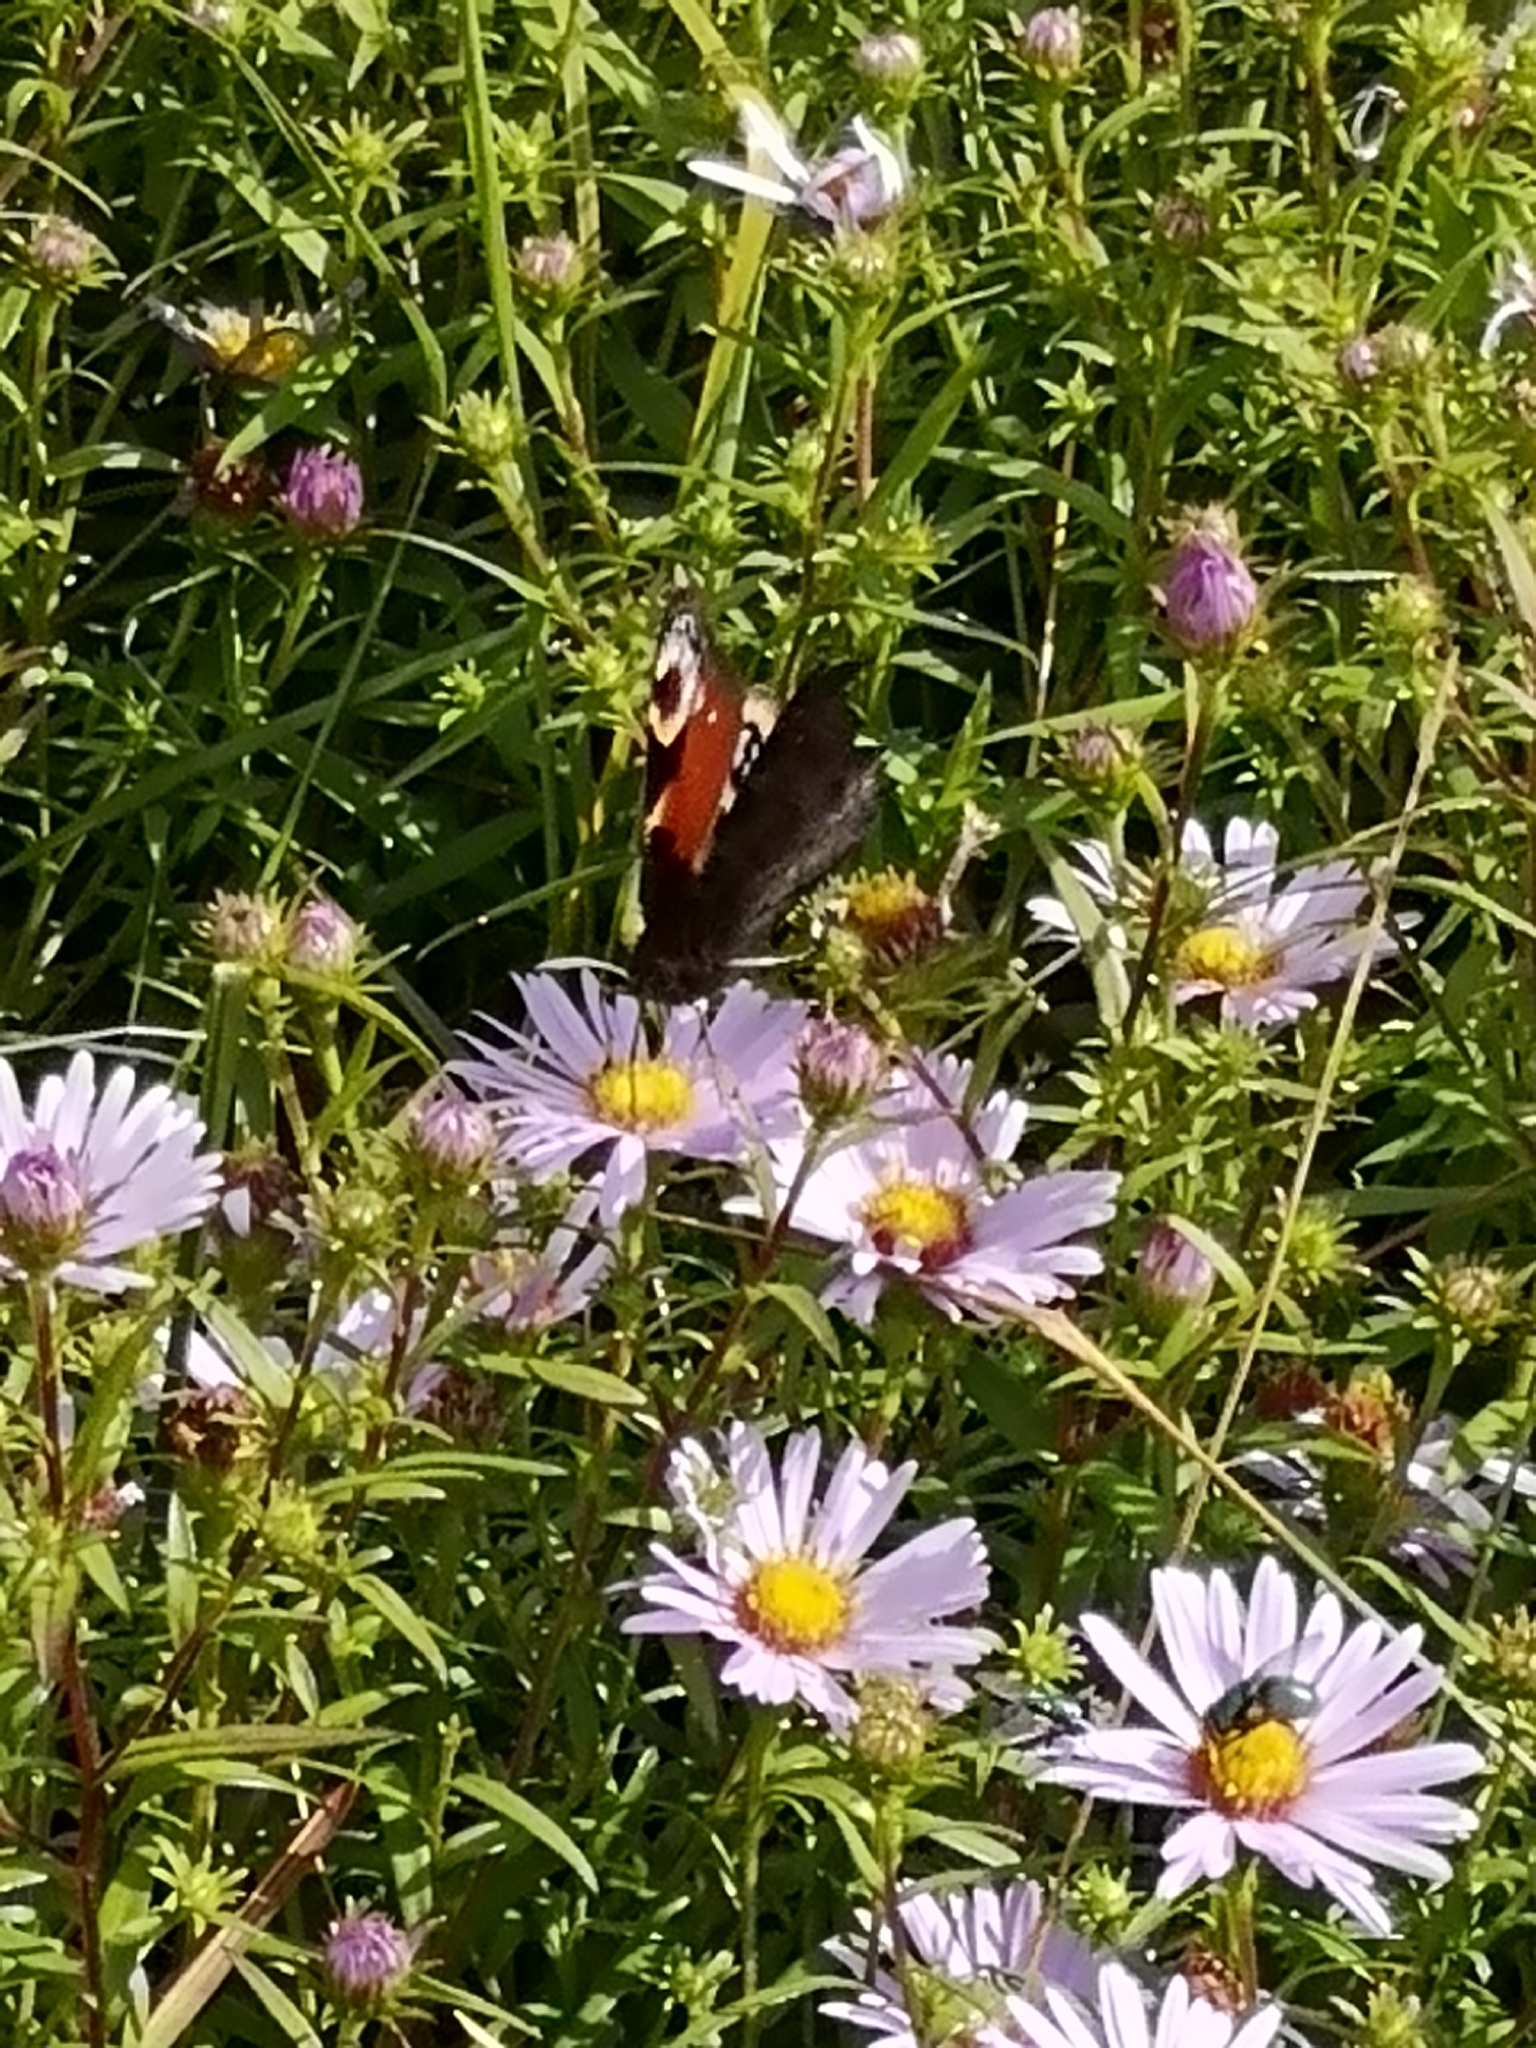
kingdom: Animalia
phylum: Arthropoda
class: Insecta
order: Lepidoptera
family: Nymphalidae
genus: Aglais
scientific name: Aglais io
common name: Peacock
